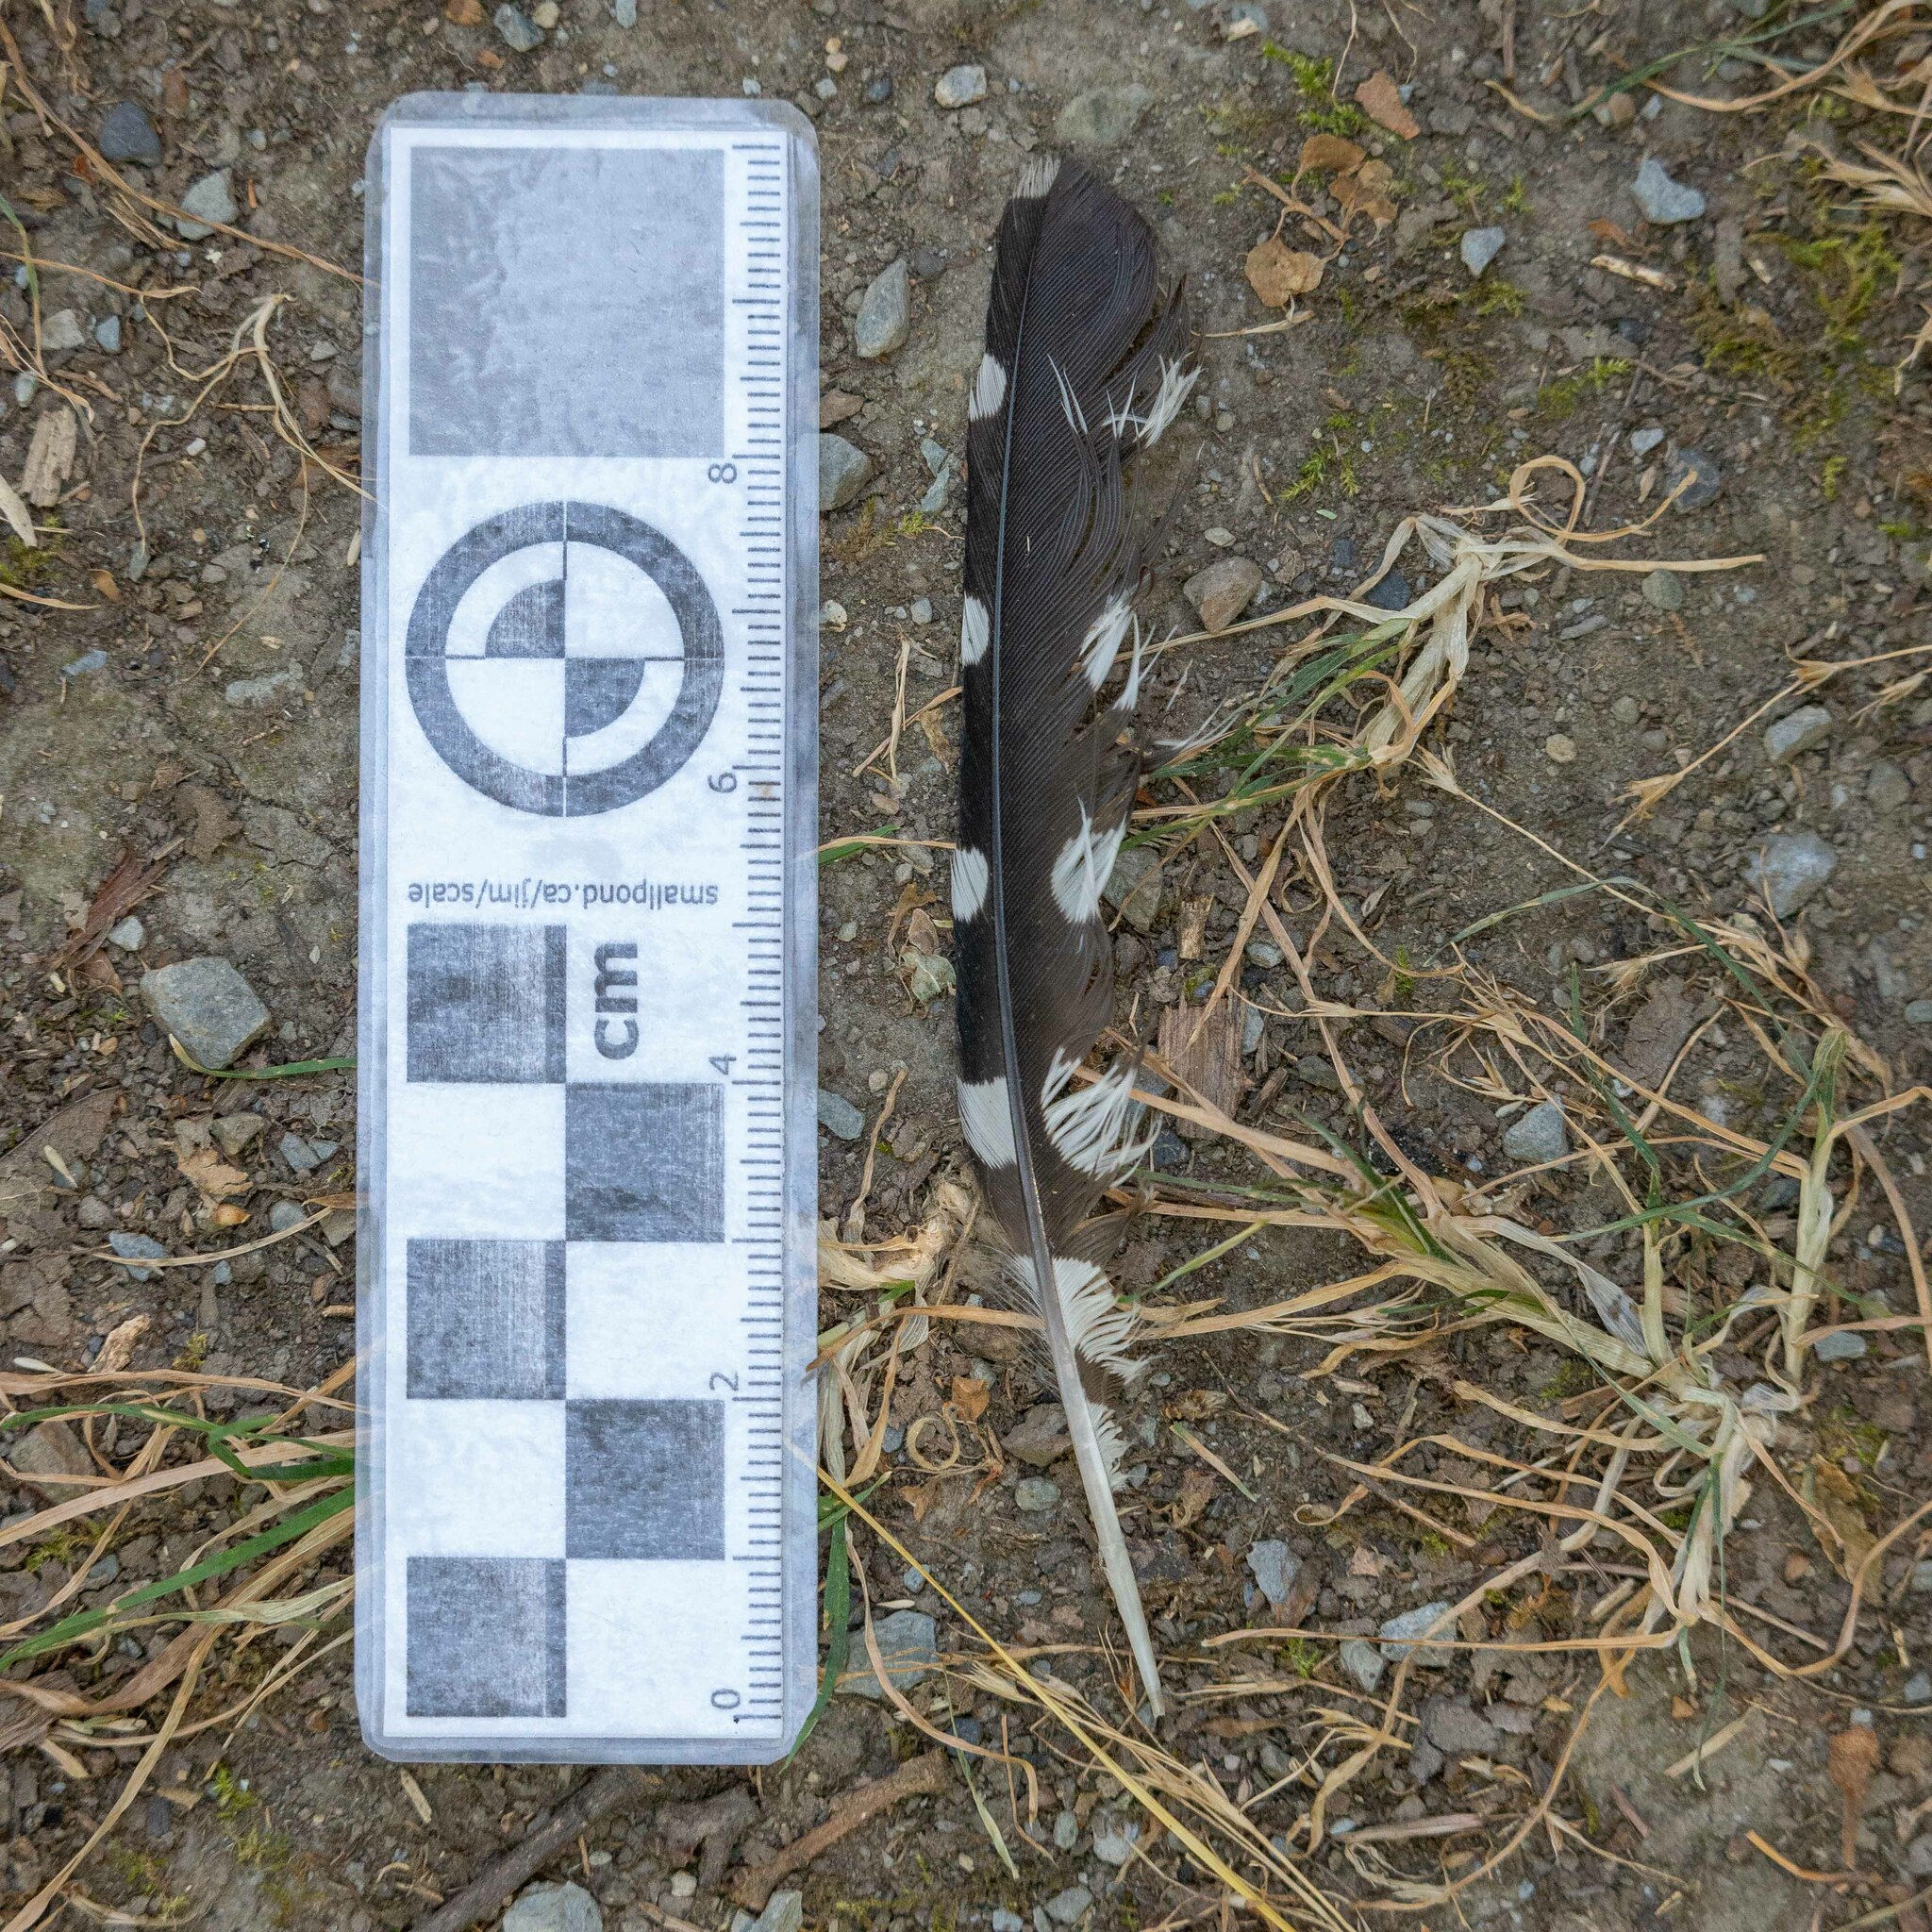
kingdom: Animalia
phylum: Chordata
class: Aves
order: Piciformes
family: Picidae
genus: Dendrocopos
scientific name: Dendrocopos major
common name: Great spotted woodpecker
